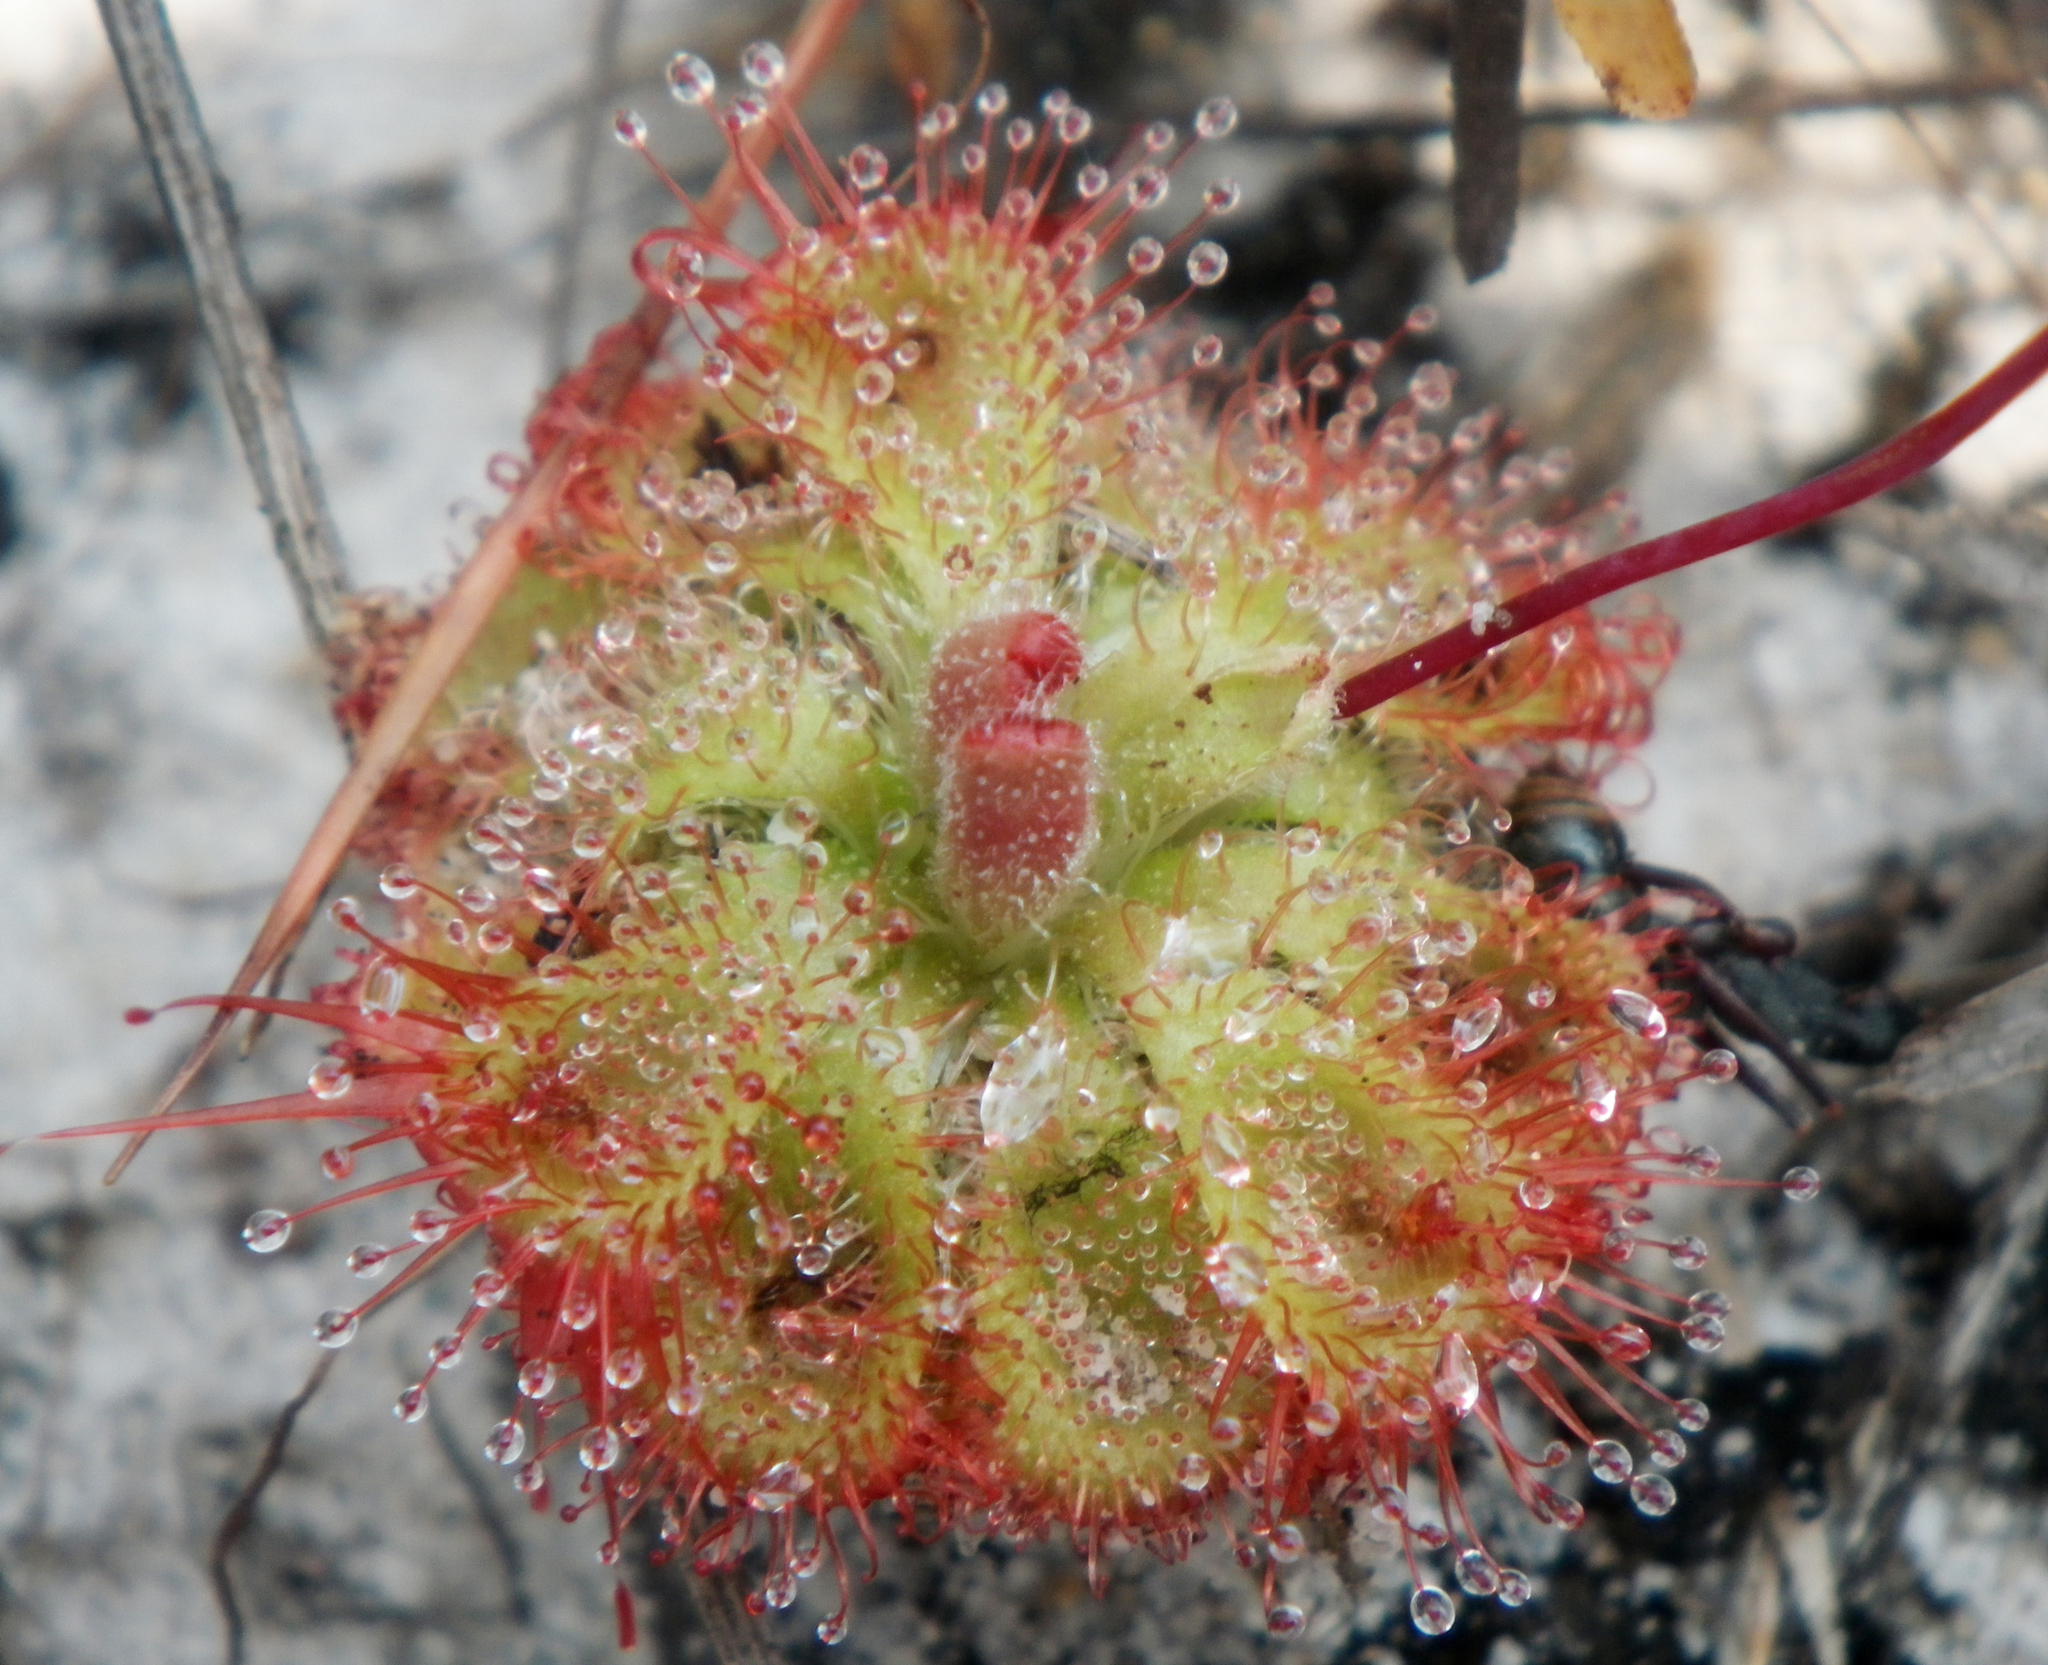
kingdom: Plantae
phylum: Tracheophyta
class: Magnoliopsida
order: Caryophyllales
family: Droseraceae
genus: Drosera
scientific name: Drosera spatulata
